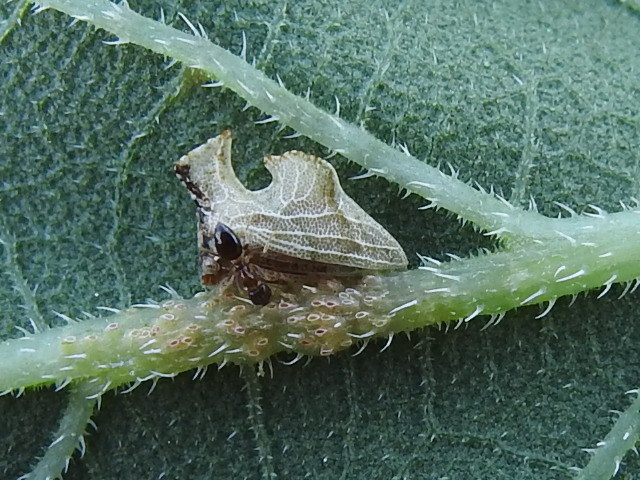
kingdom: Animalia
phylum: Arthropoda
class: Insecta
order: Hemiptera
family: Membracidae
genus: Entylia
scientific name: Entylia carinata
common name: Keeled treehopper
